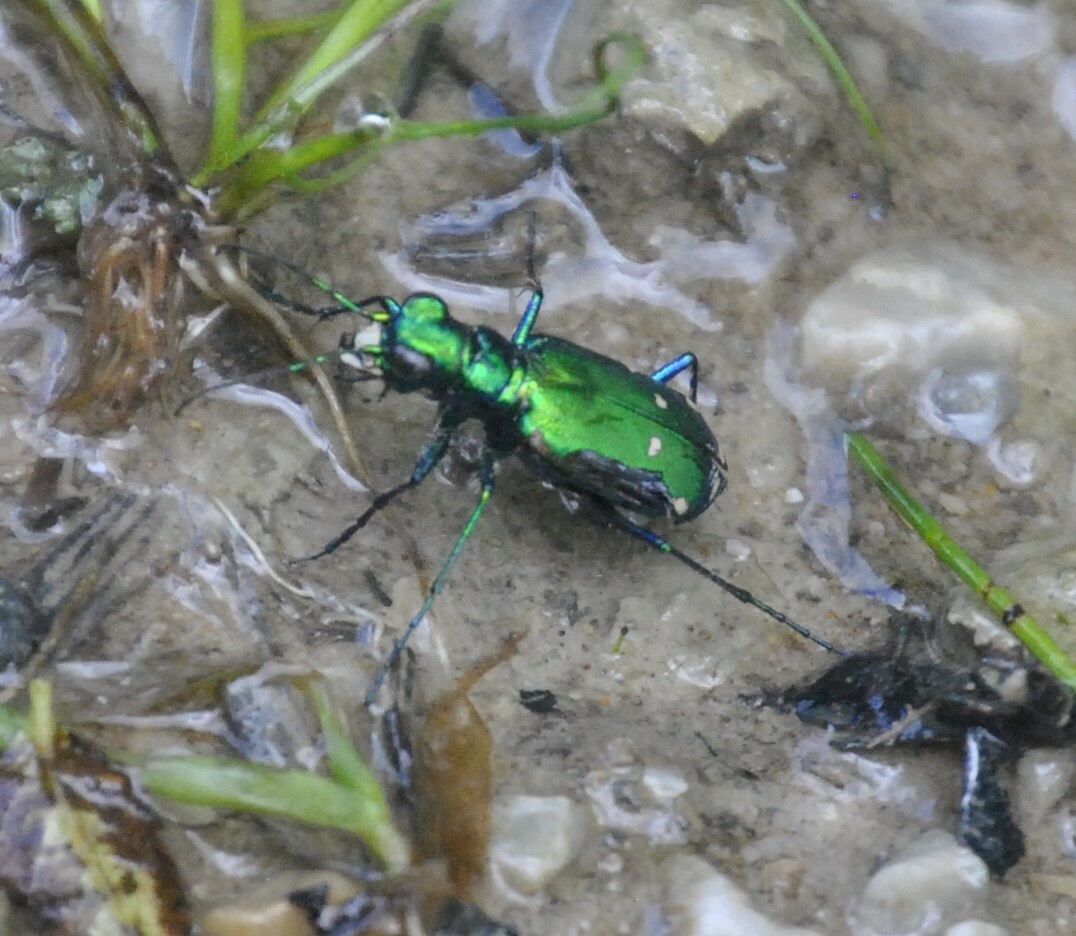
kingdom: Animalia
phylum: Arthropoda
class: Insecta
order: Coleoptera
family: Carabidae
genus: Cicindela
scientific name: Cicindela sexguttata
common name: Six-spotted tiger beetle
